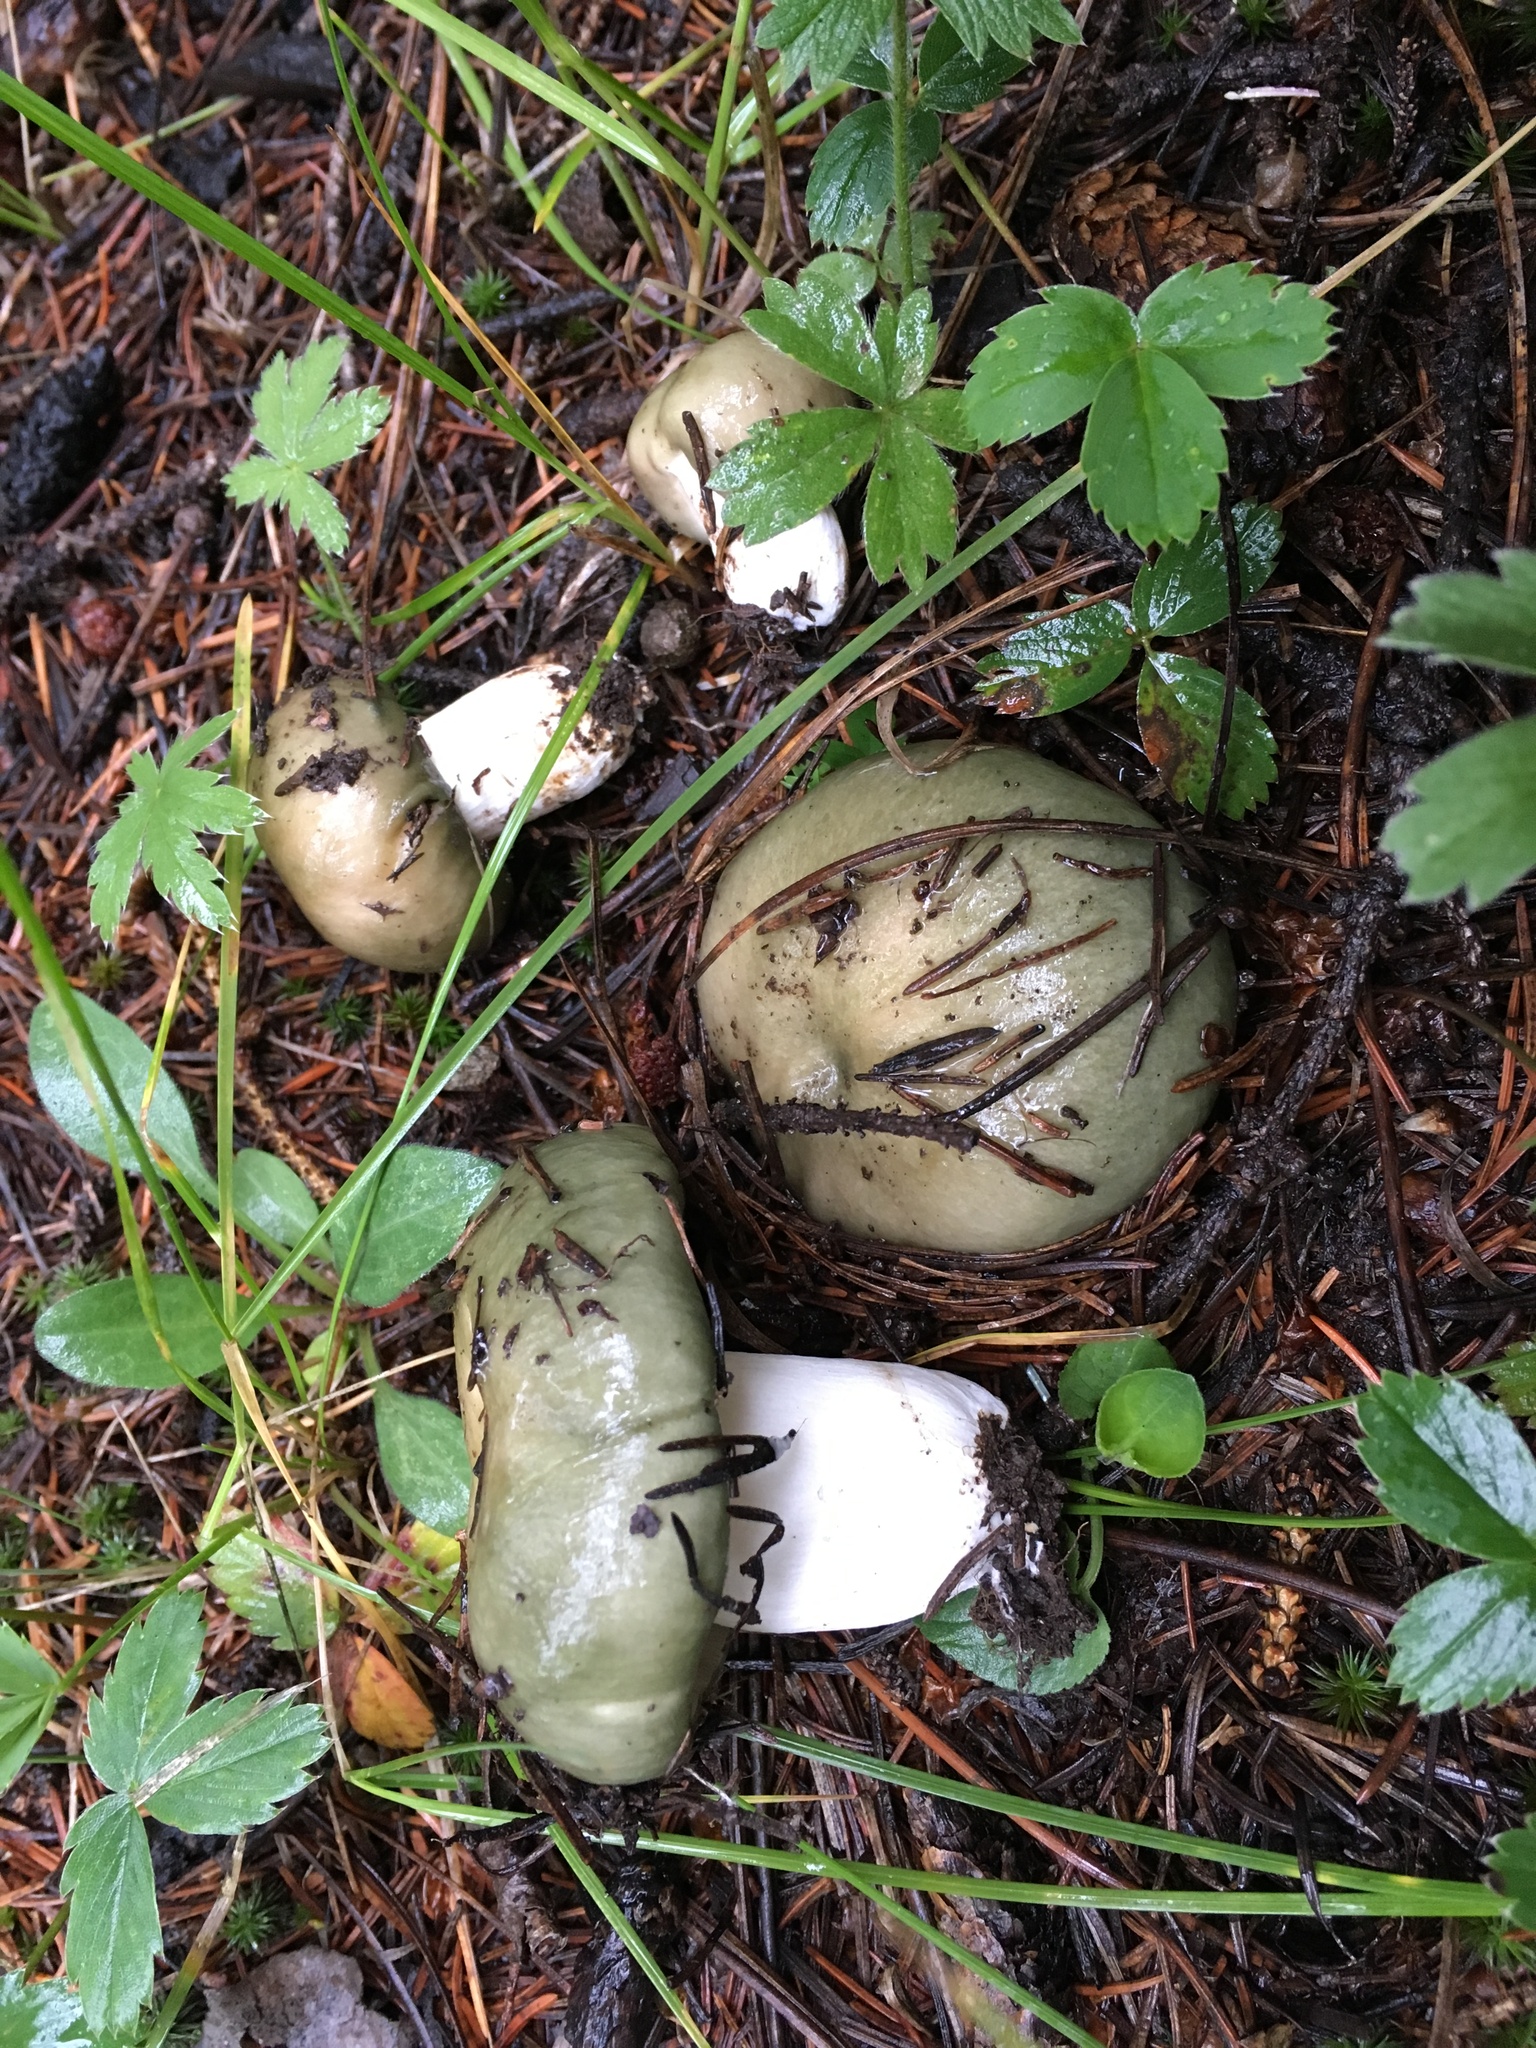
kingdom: Fungi
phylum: Basidiomycota
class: Agaricomycetes
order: Russulales
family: Russulaceae
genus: Russula
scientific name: Russula atroglauca
